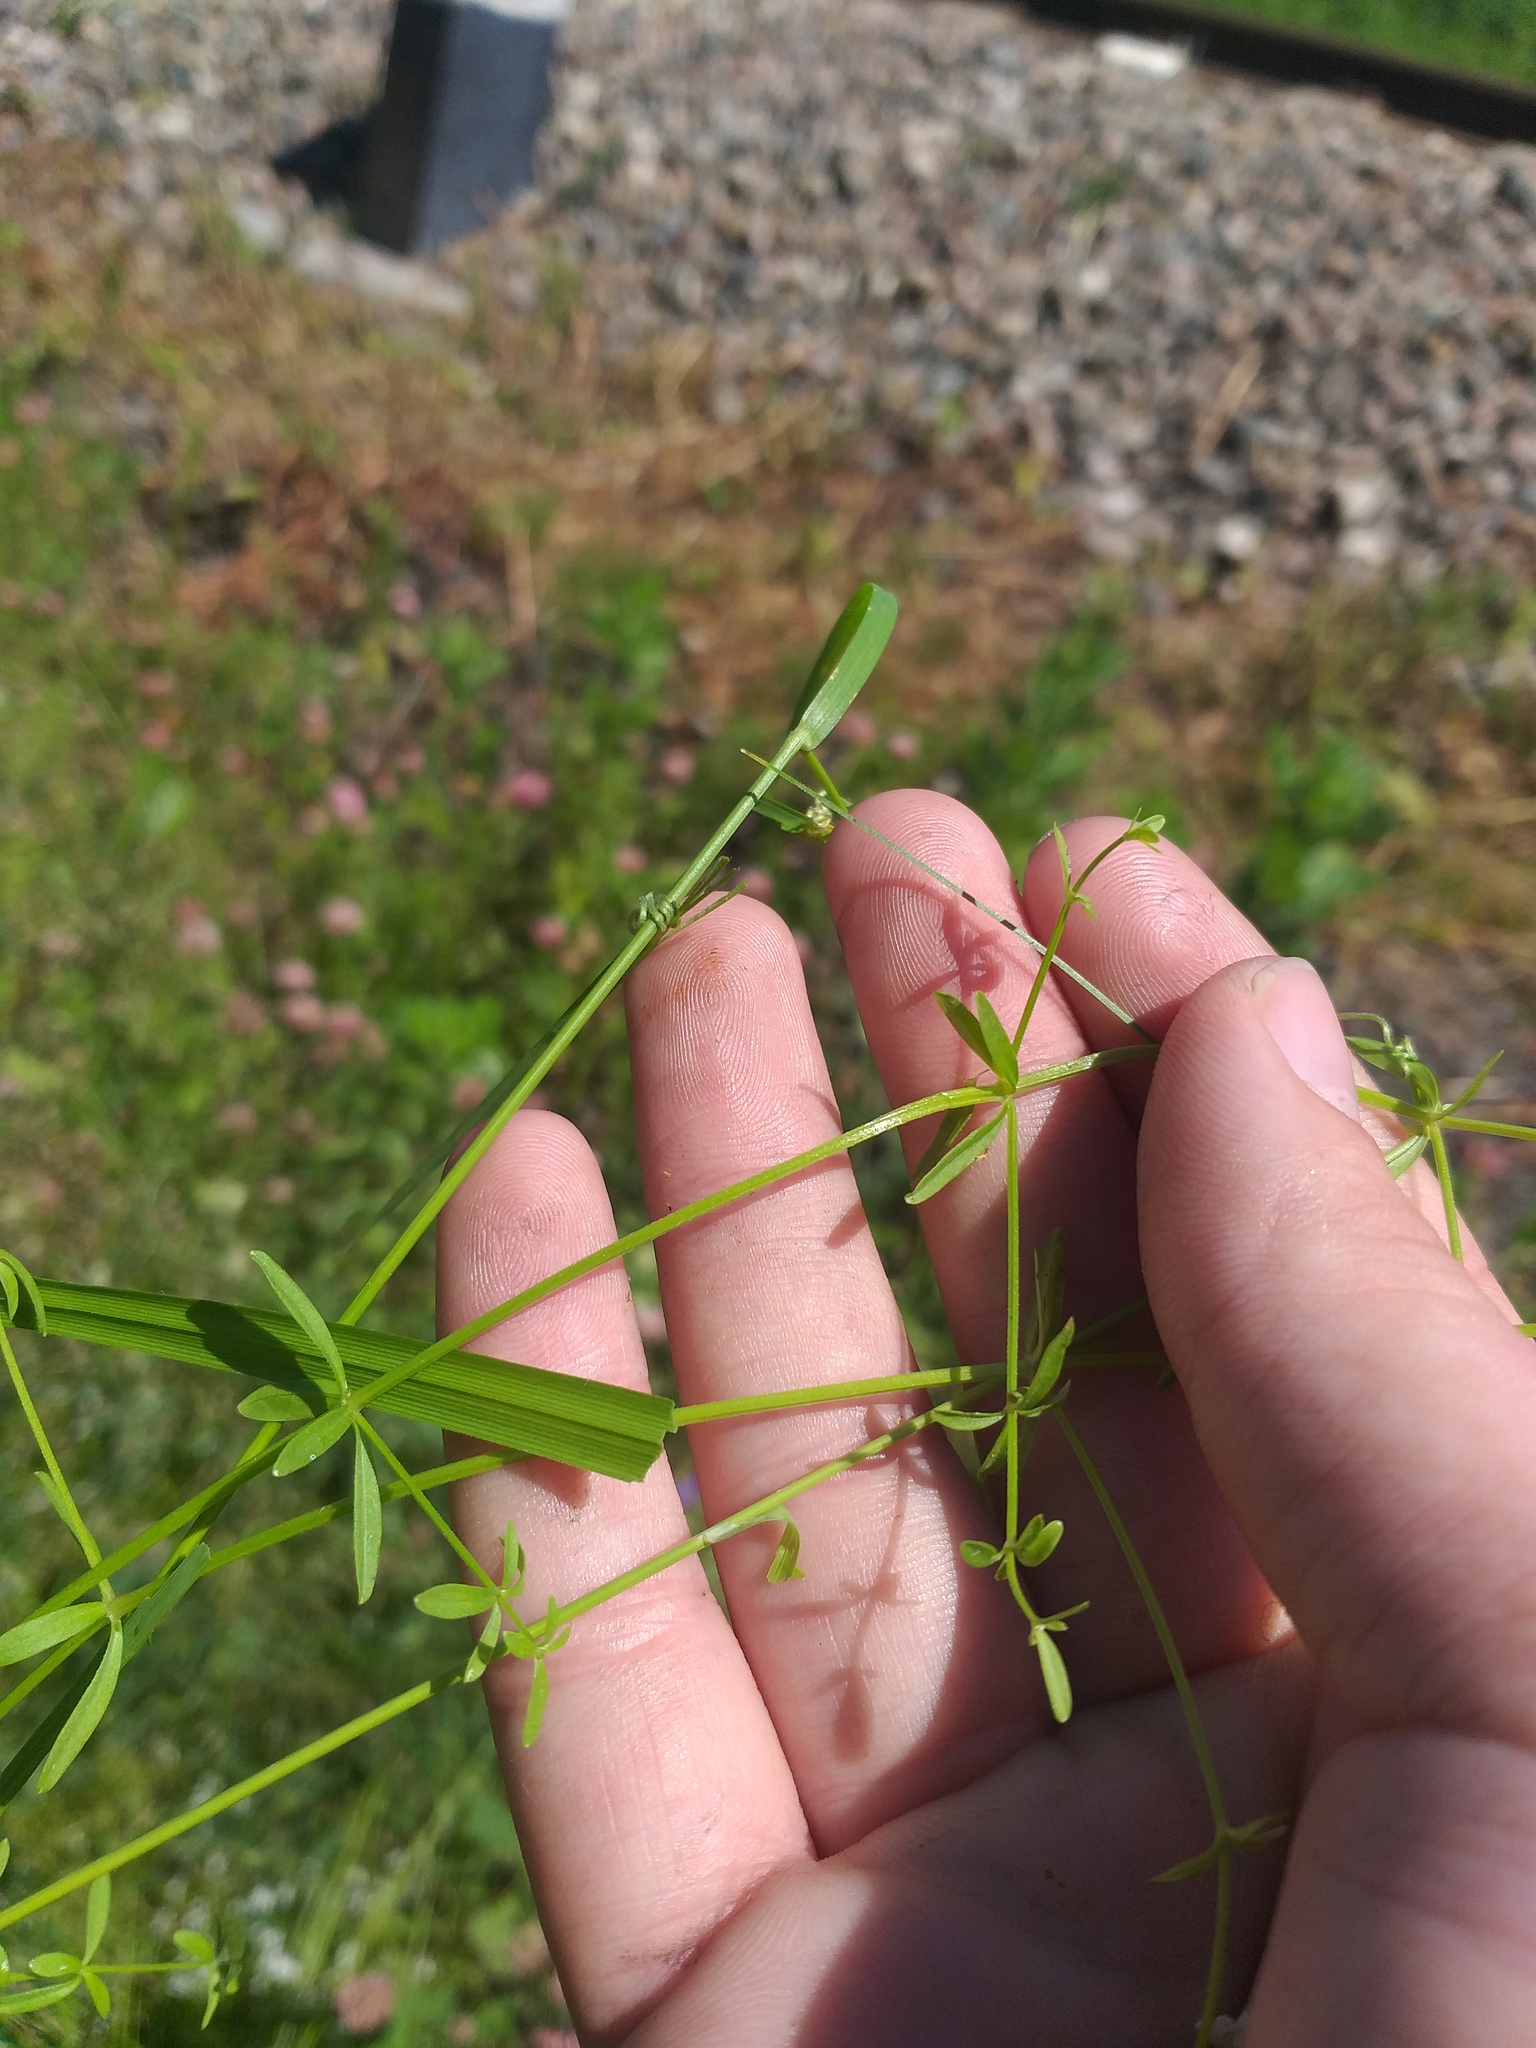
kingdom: Plantae
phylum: Tracheophyta
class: Magnoliopsida
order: Gentianales
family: Rubiaceae
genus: Galium
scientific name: Galium palustre
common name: Common marsh-bedstraw
